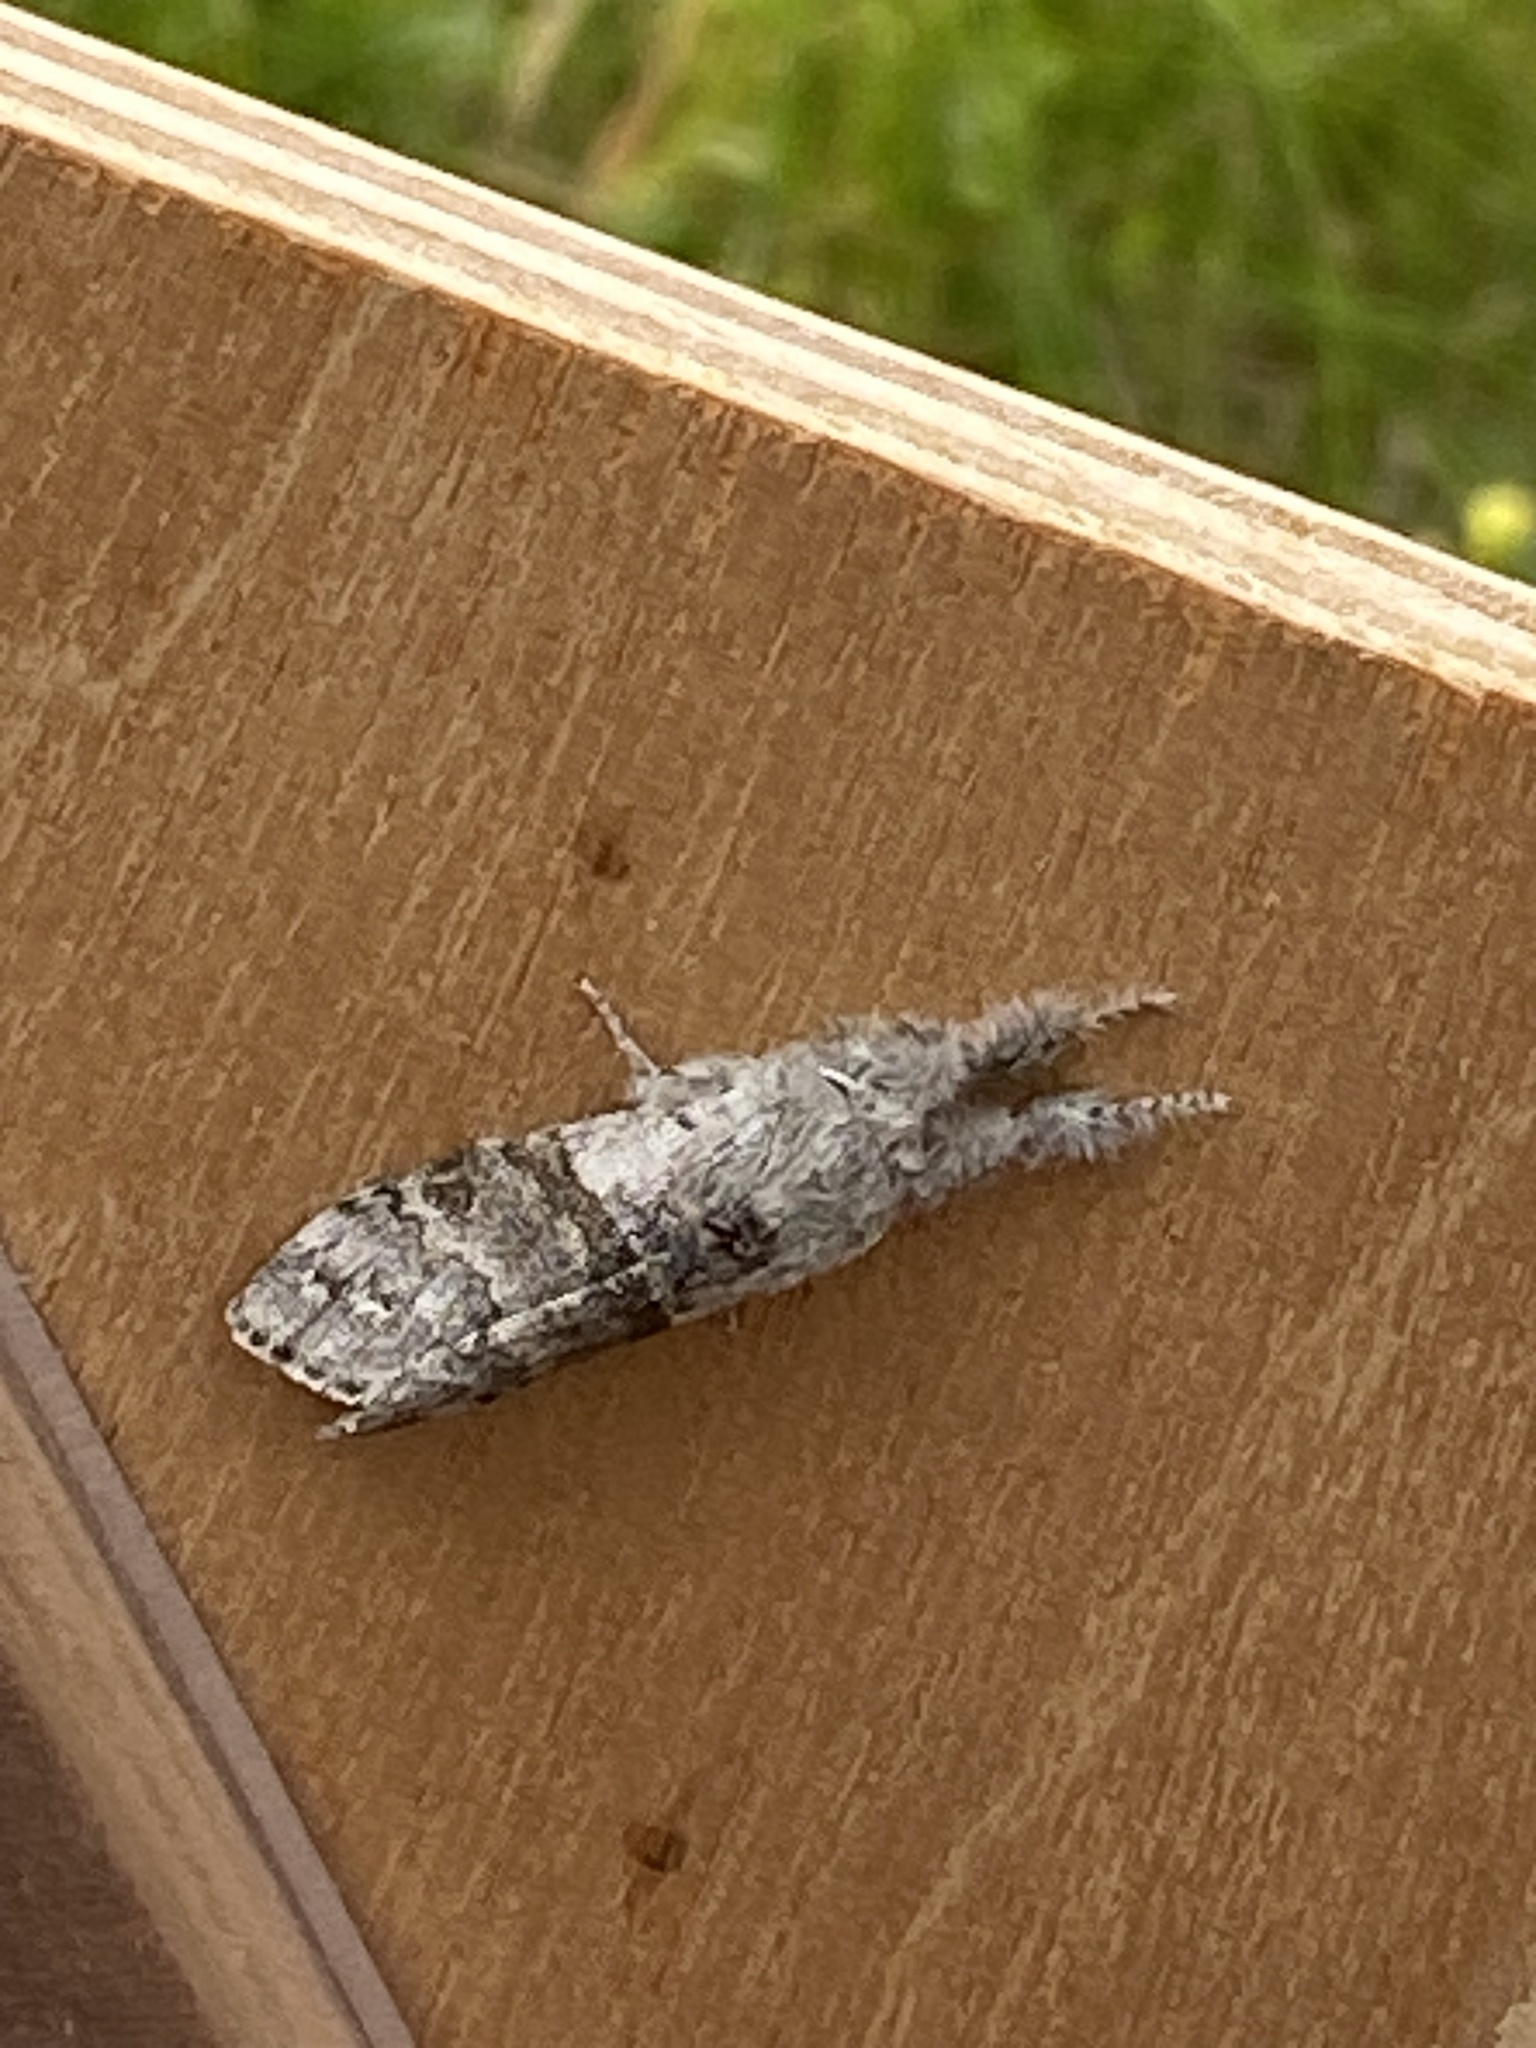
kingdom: Animalia
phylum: Arthropoda
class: Insecta
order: Lepidoptera
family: Erebidae
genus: Calliteara
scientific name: Calliteara pudibunda
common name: Pale tussock
